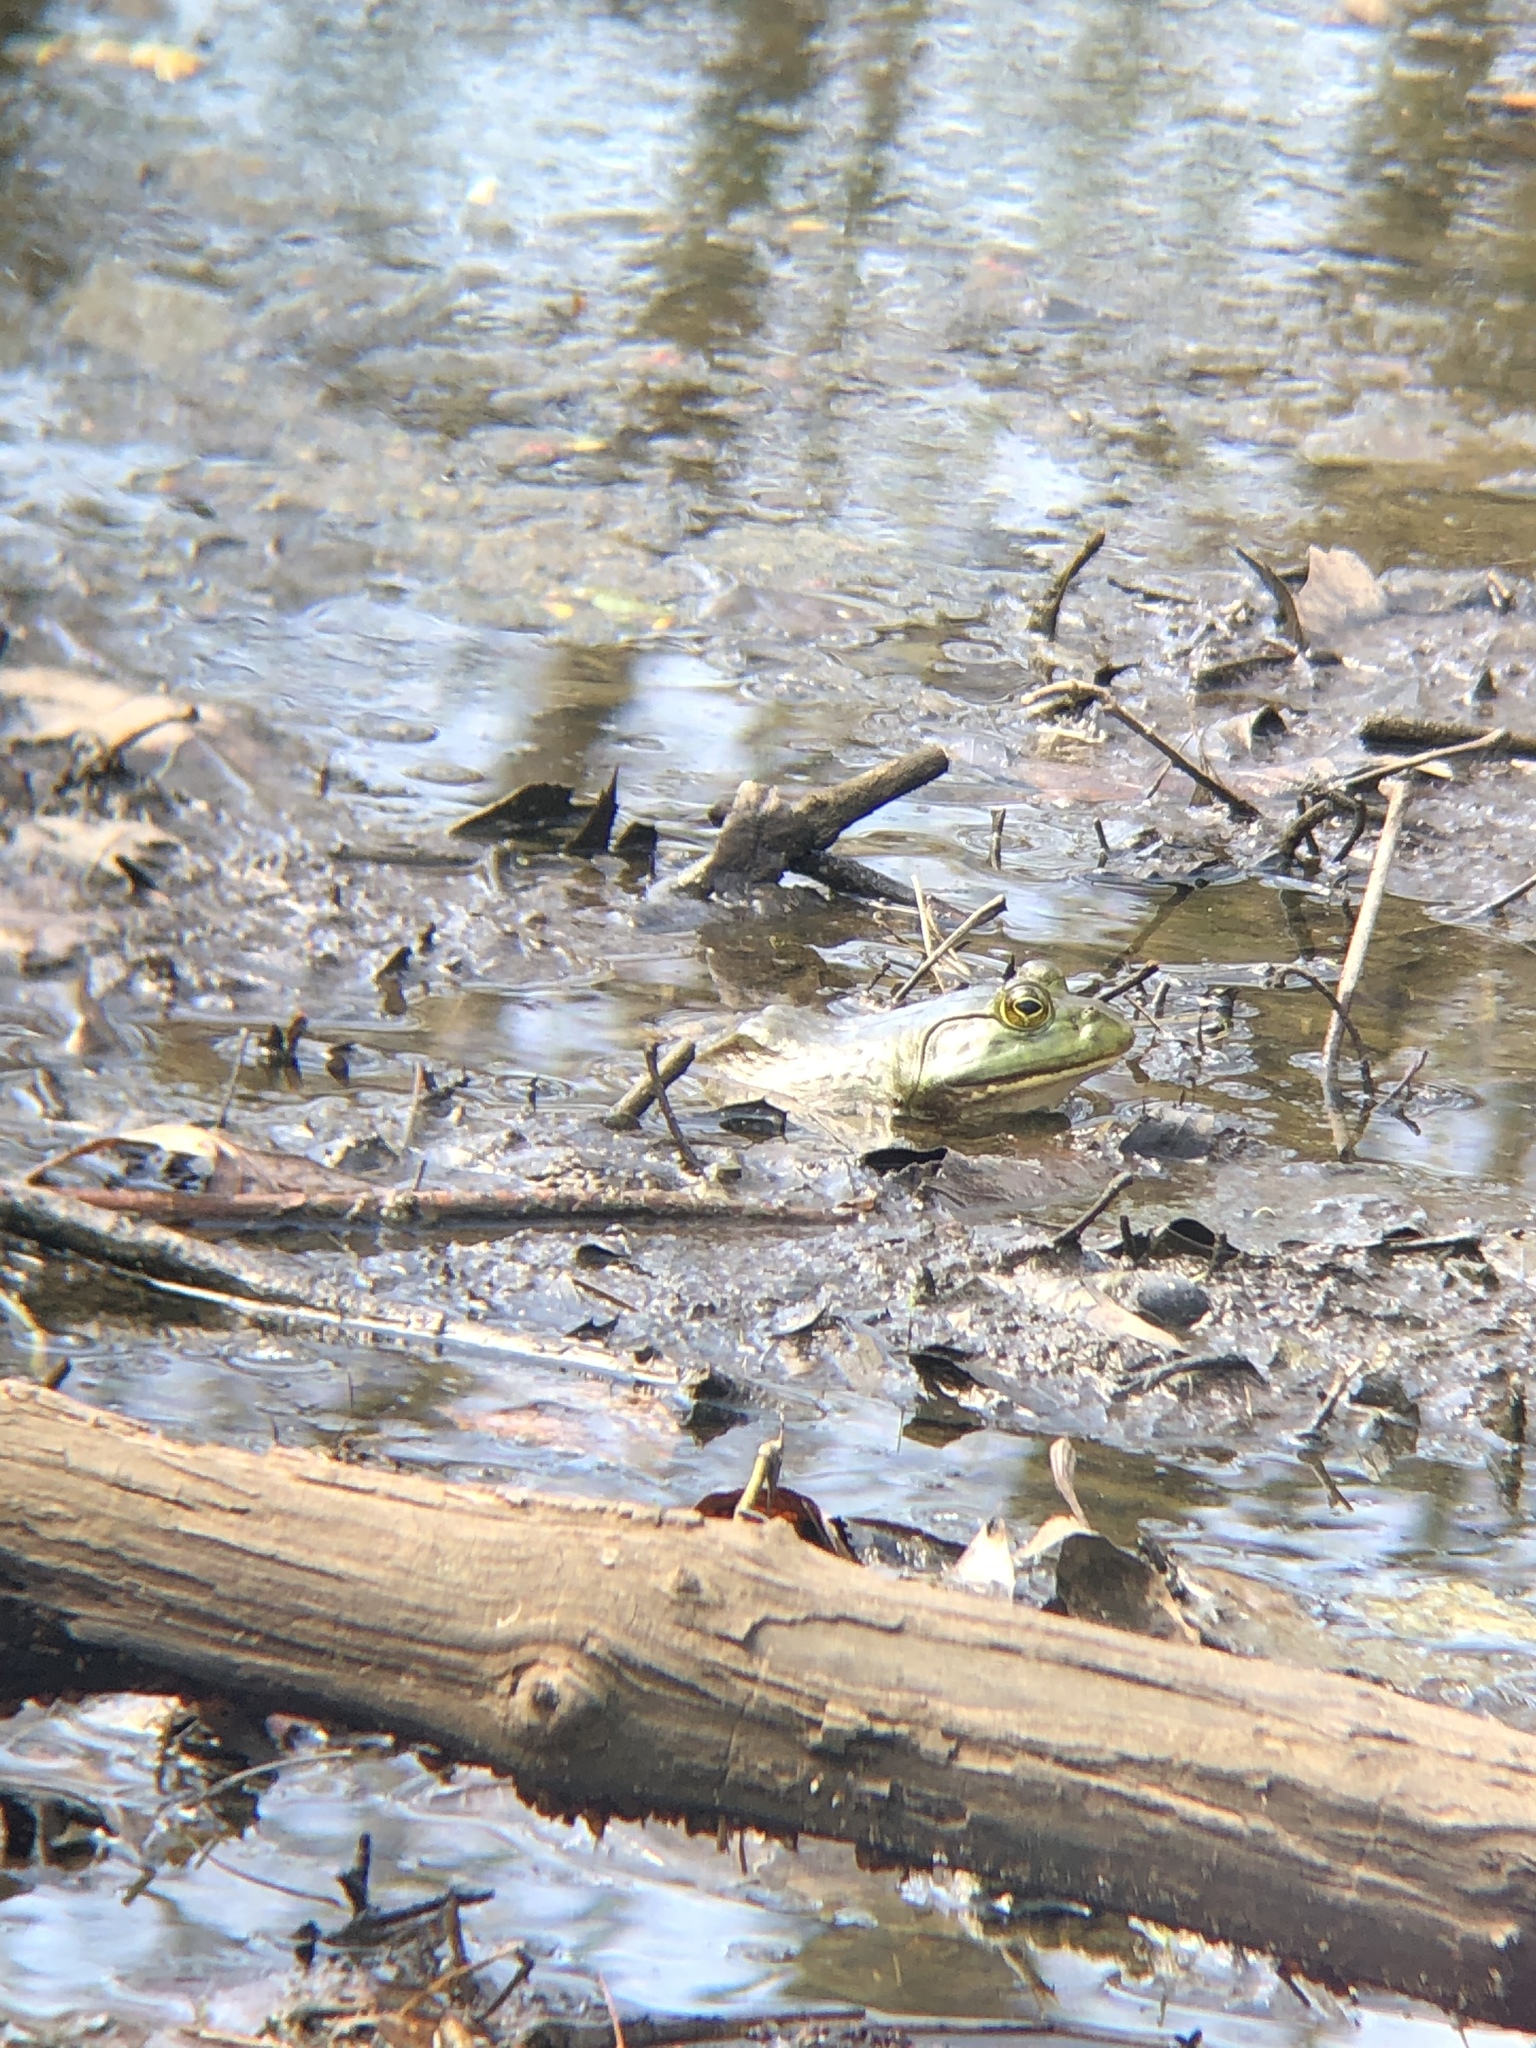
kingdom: Animalia
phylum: Chordata
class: Amphibia
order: Anura
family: Ranidae
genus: Lithobates
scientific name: Lithobates catesbeianus
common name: American bullfrog
